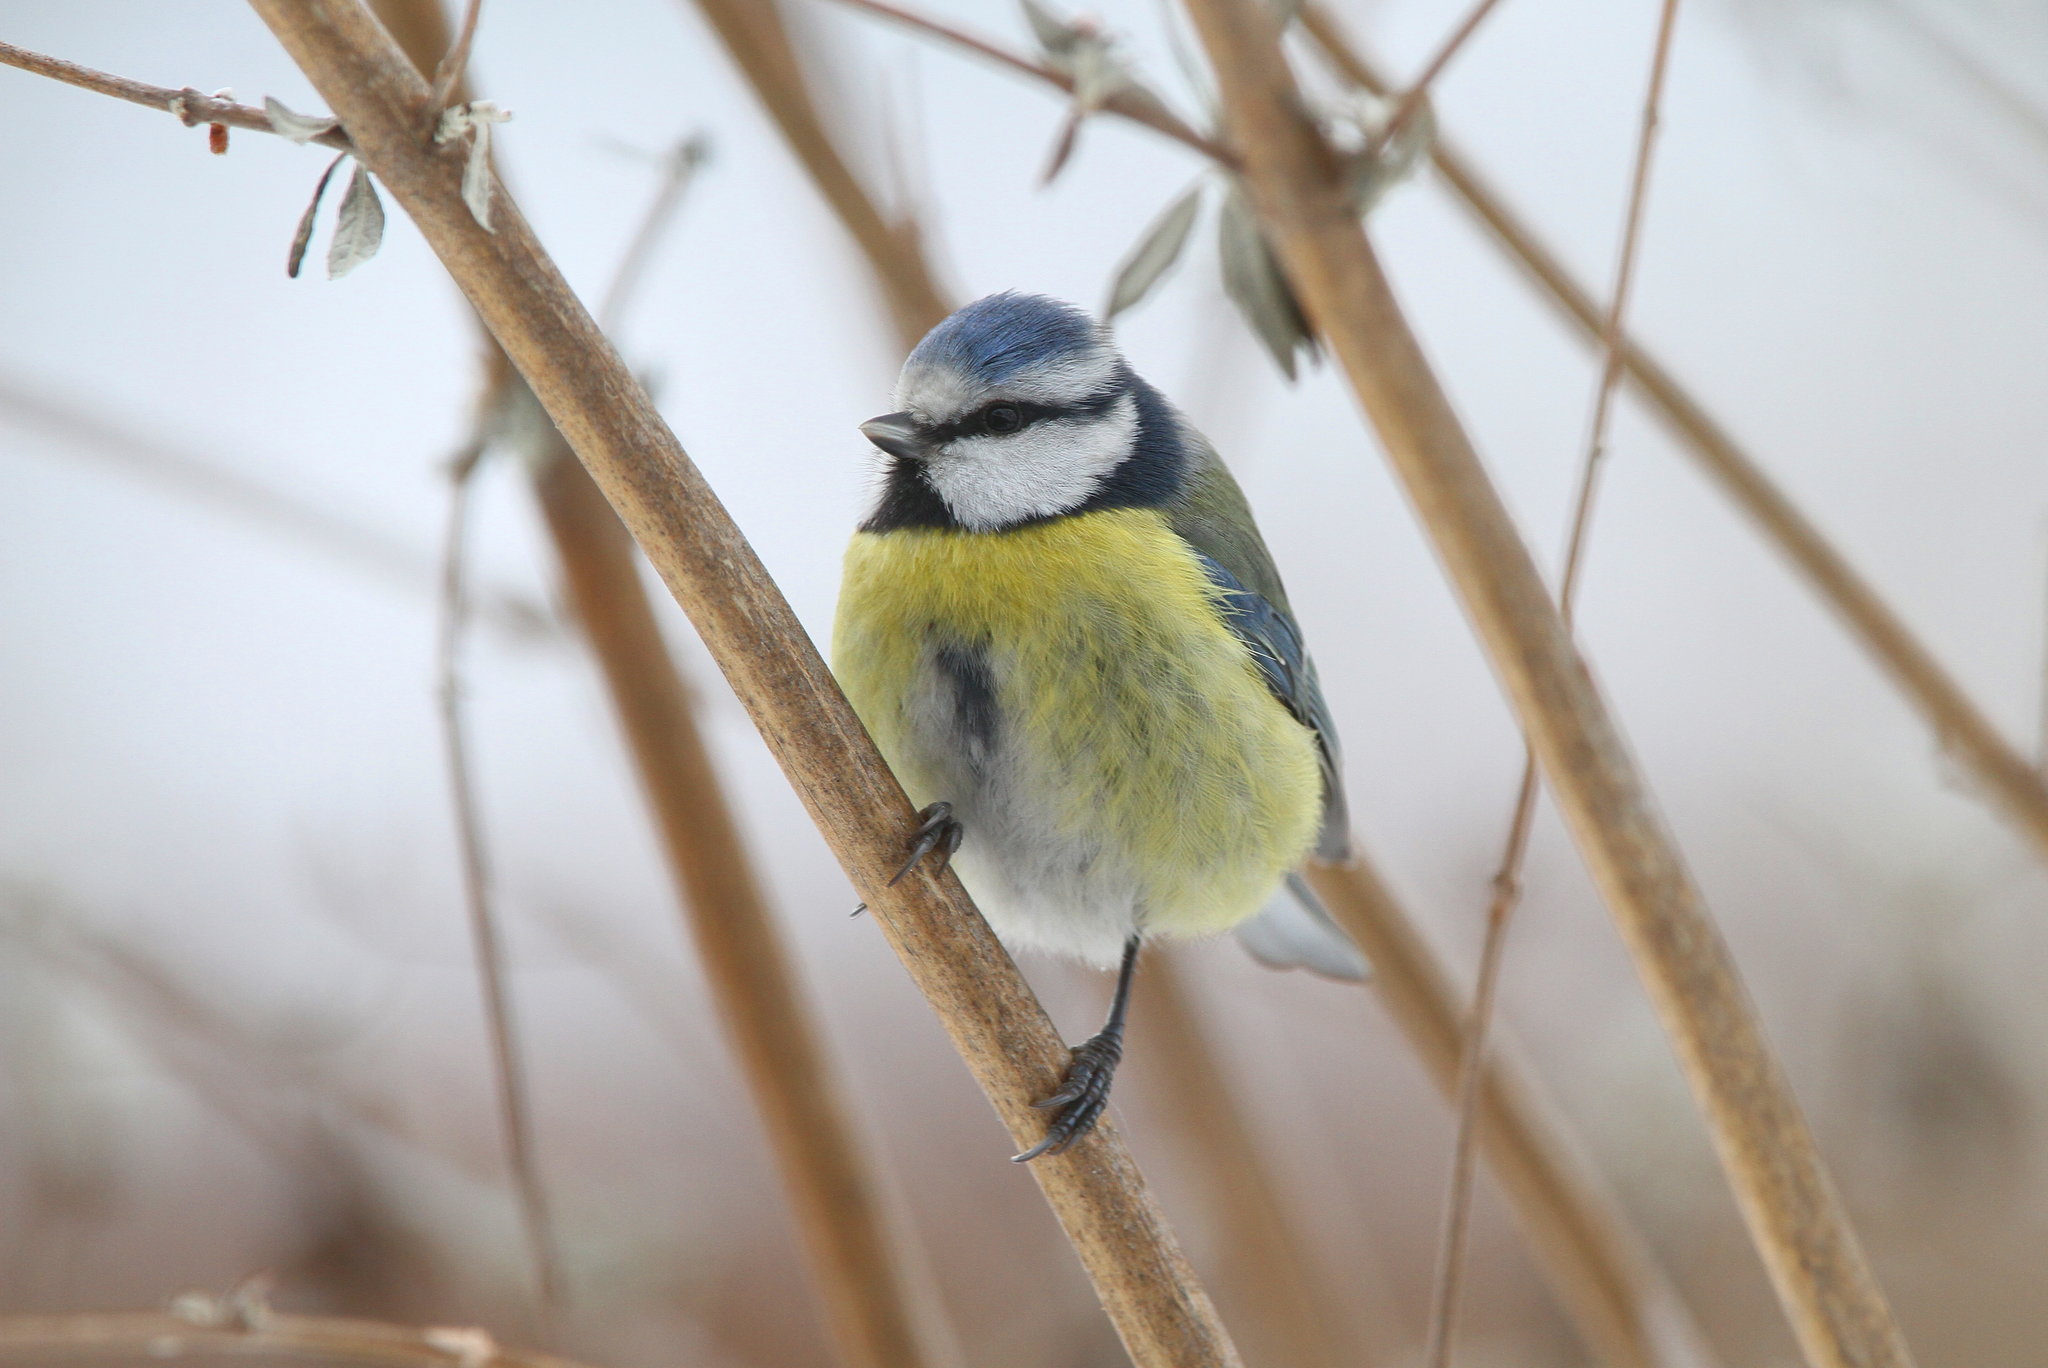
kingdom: Animalia
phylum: Chordata
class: Aves
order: Passeriformes
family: Paridae
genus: Cyanistes
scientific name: Cyanistes caeruleus
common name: Eurasian blue tit
